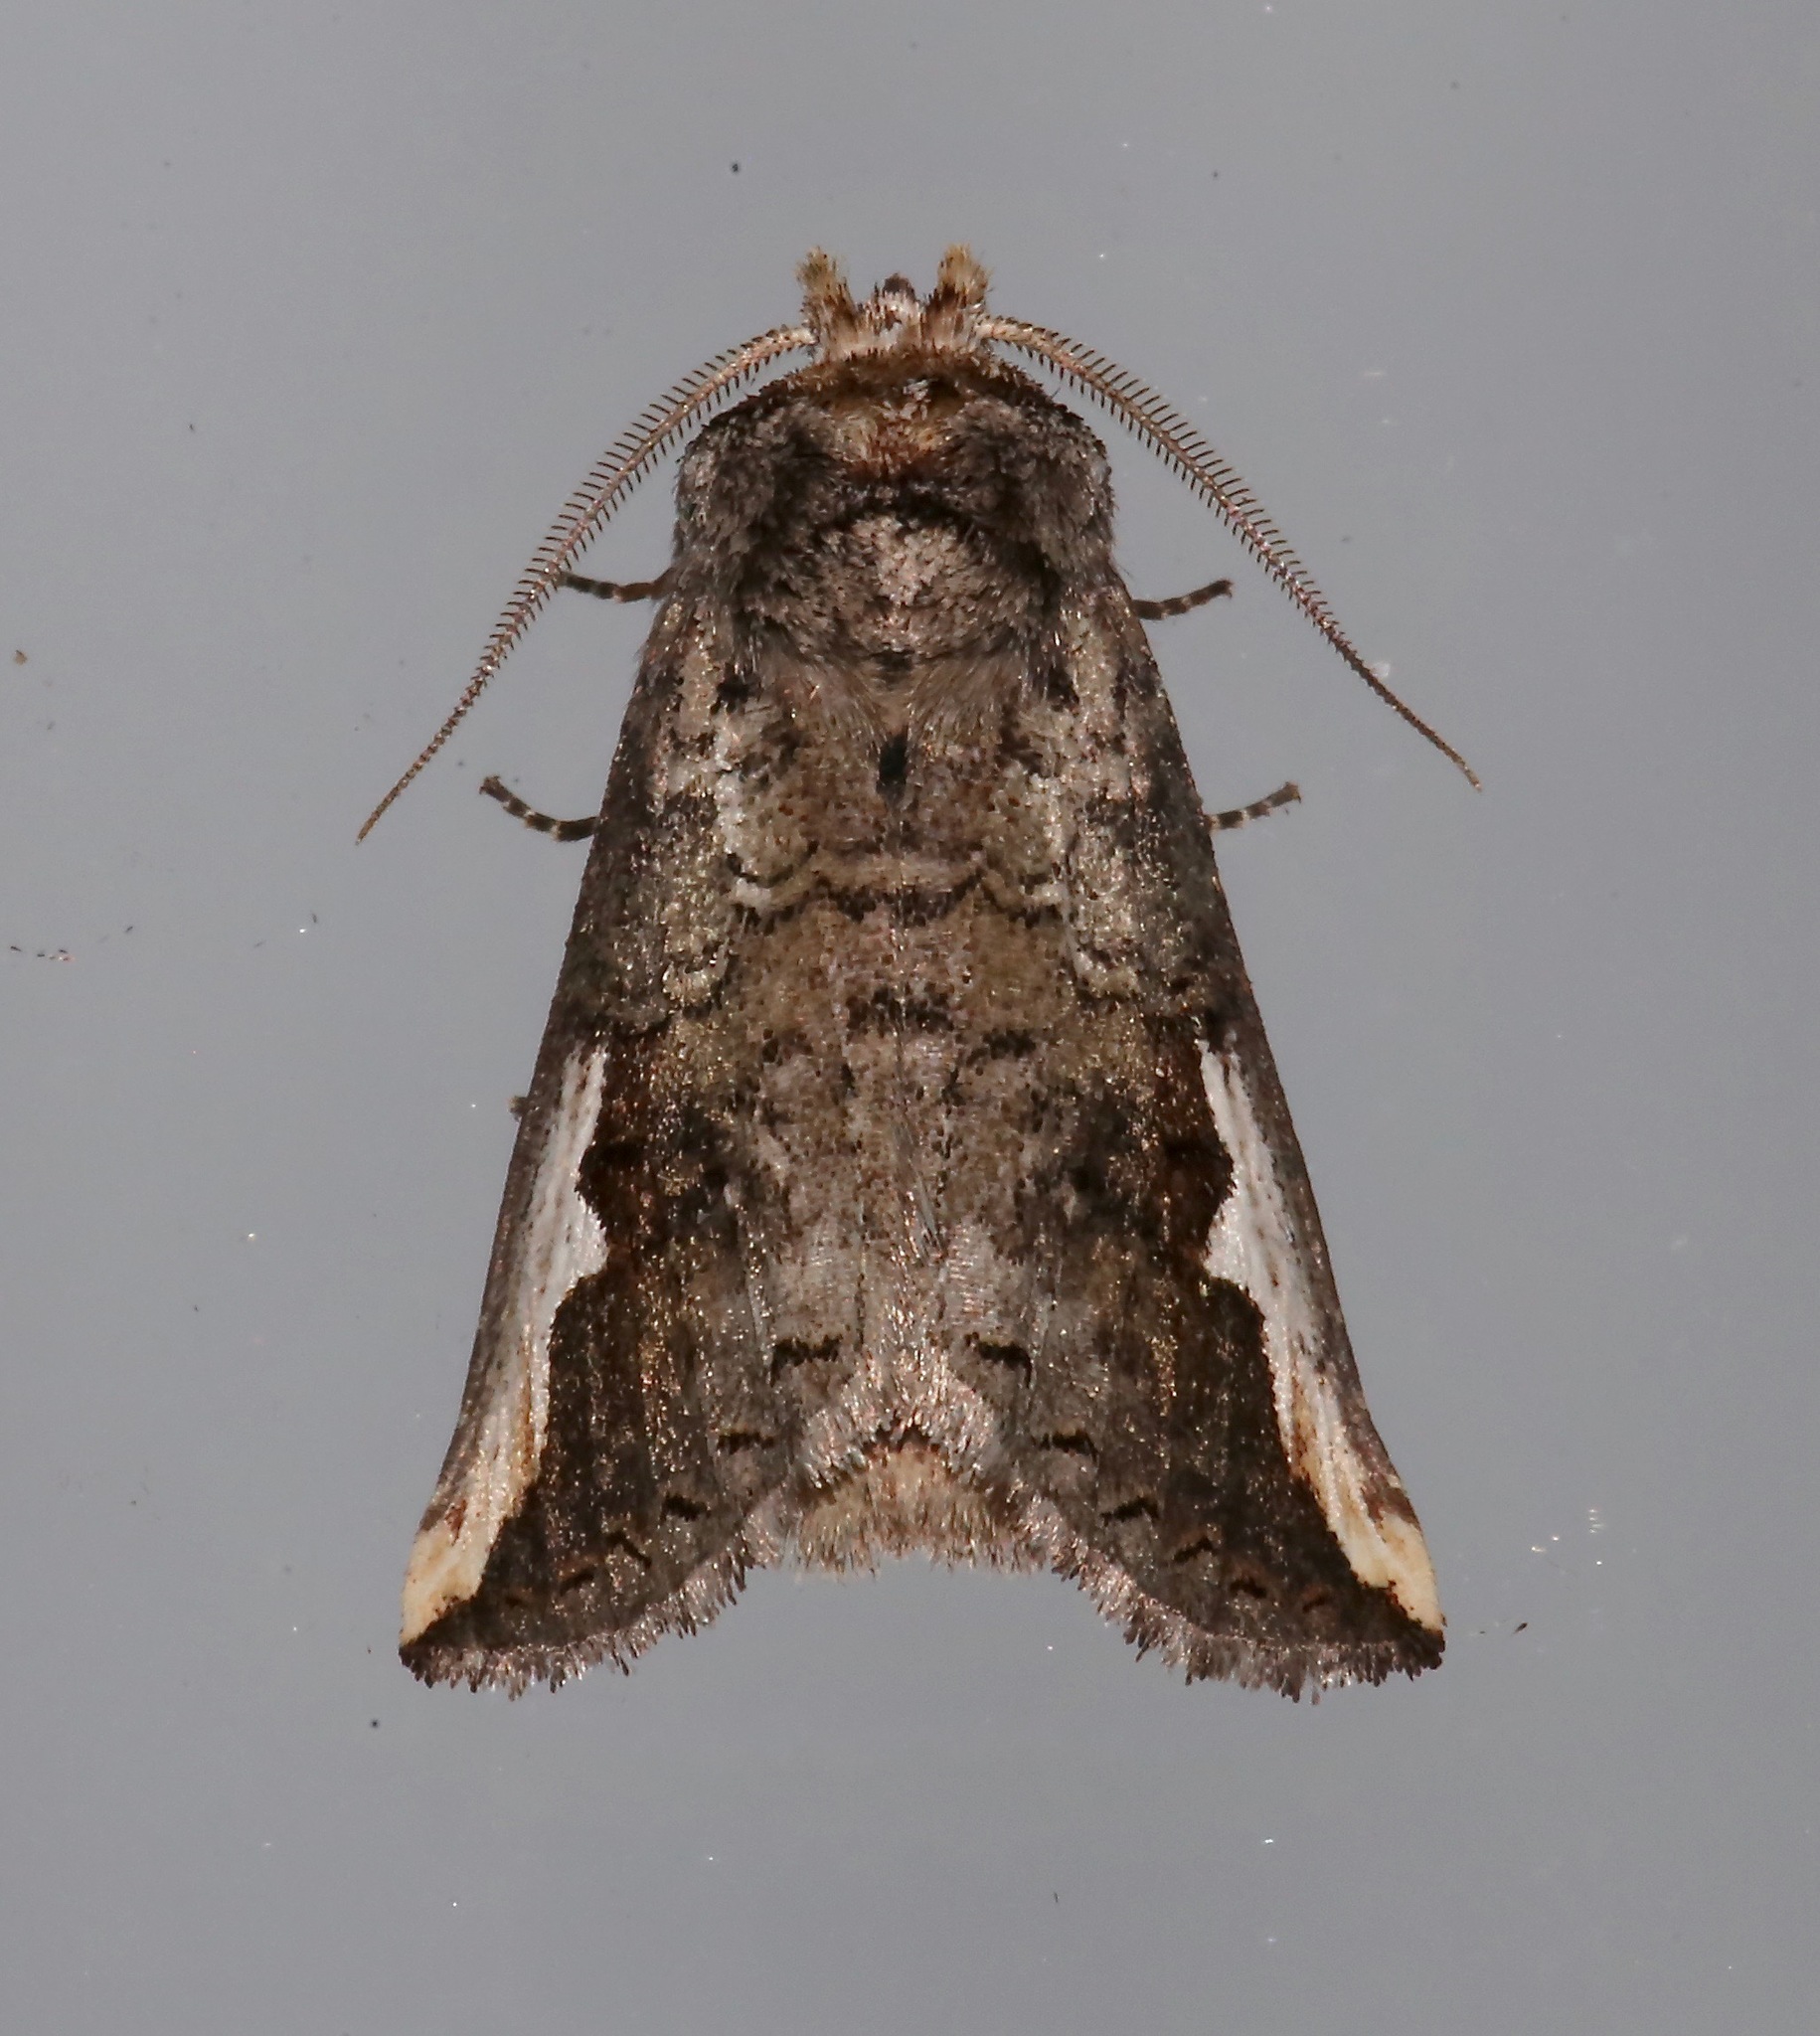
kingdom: Animalia
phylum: Arthropoda
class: Insecta
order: Lepidoptera
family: Notodontidae
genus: Symmerista
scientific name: Symmerista albifrons
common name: White-headed prominent
